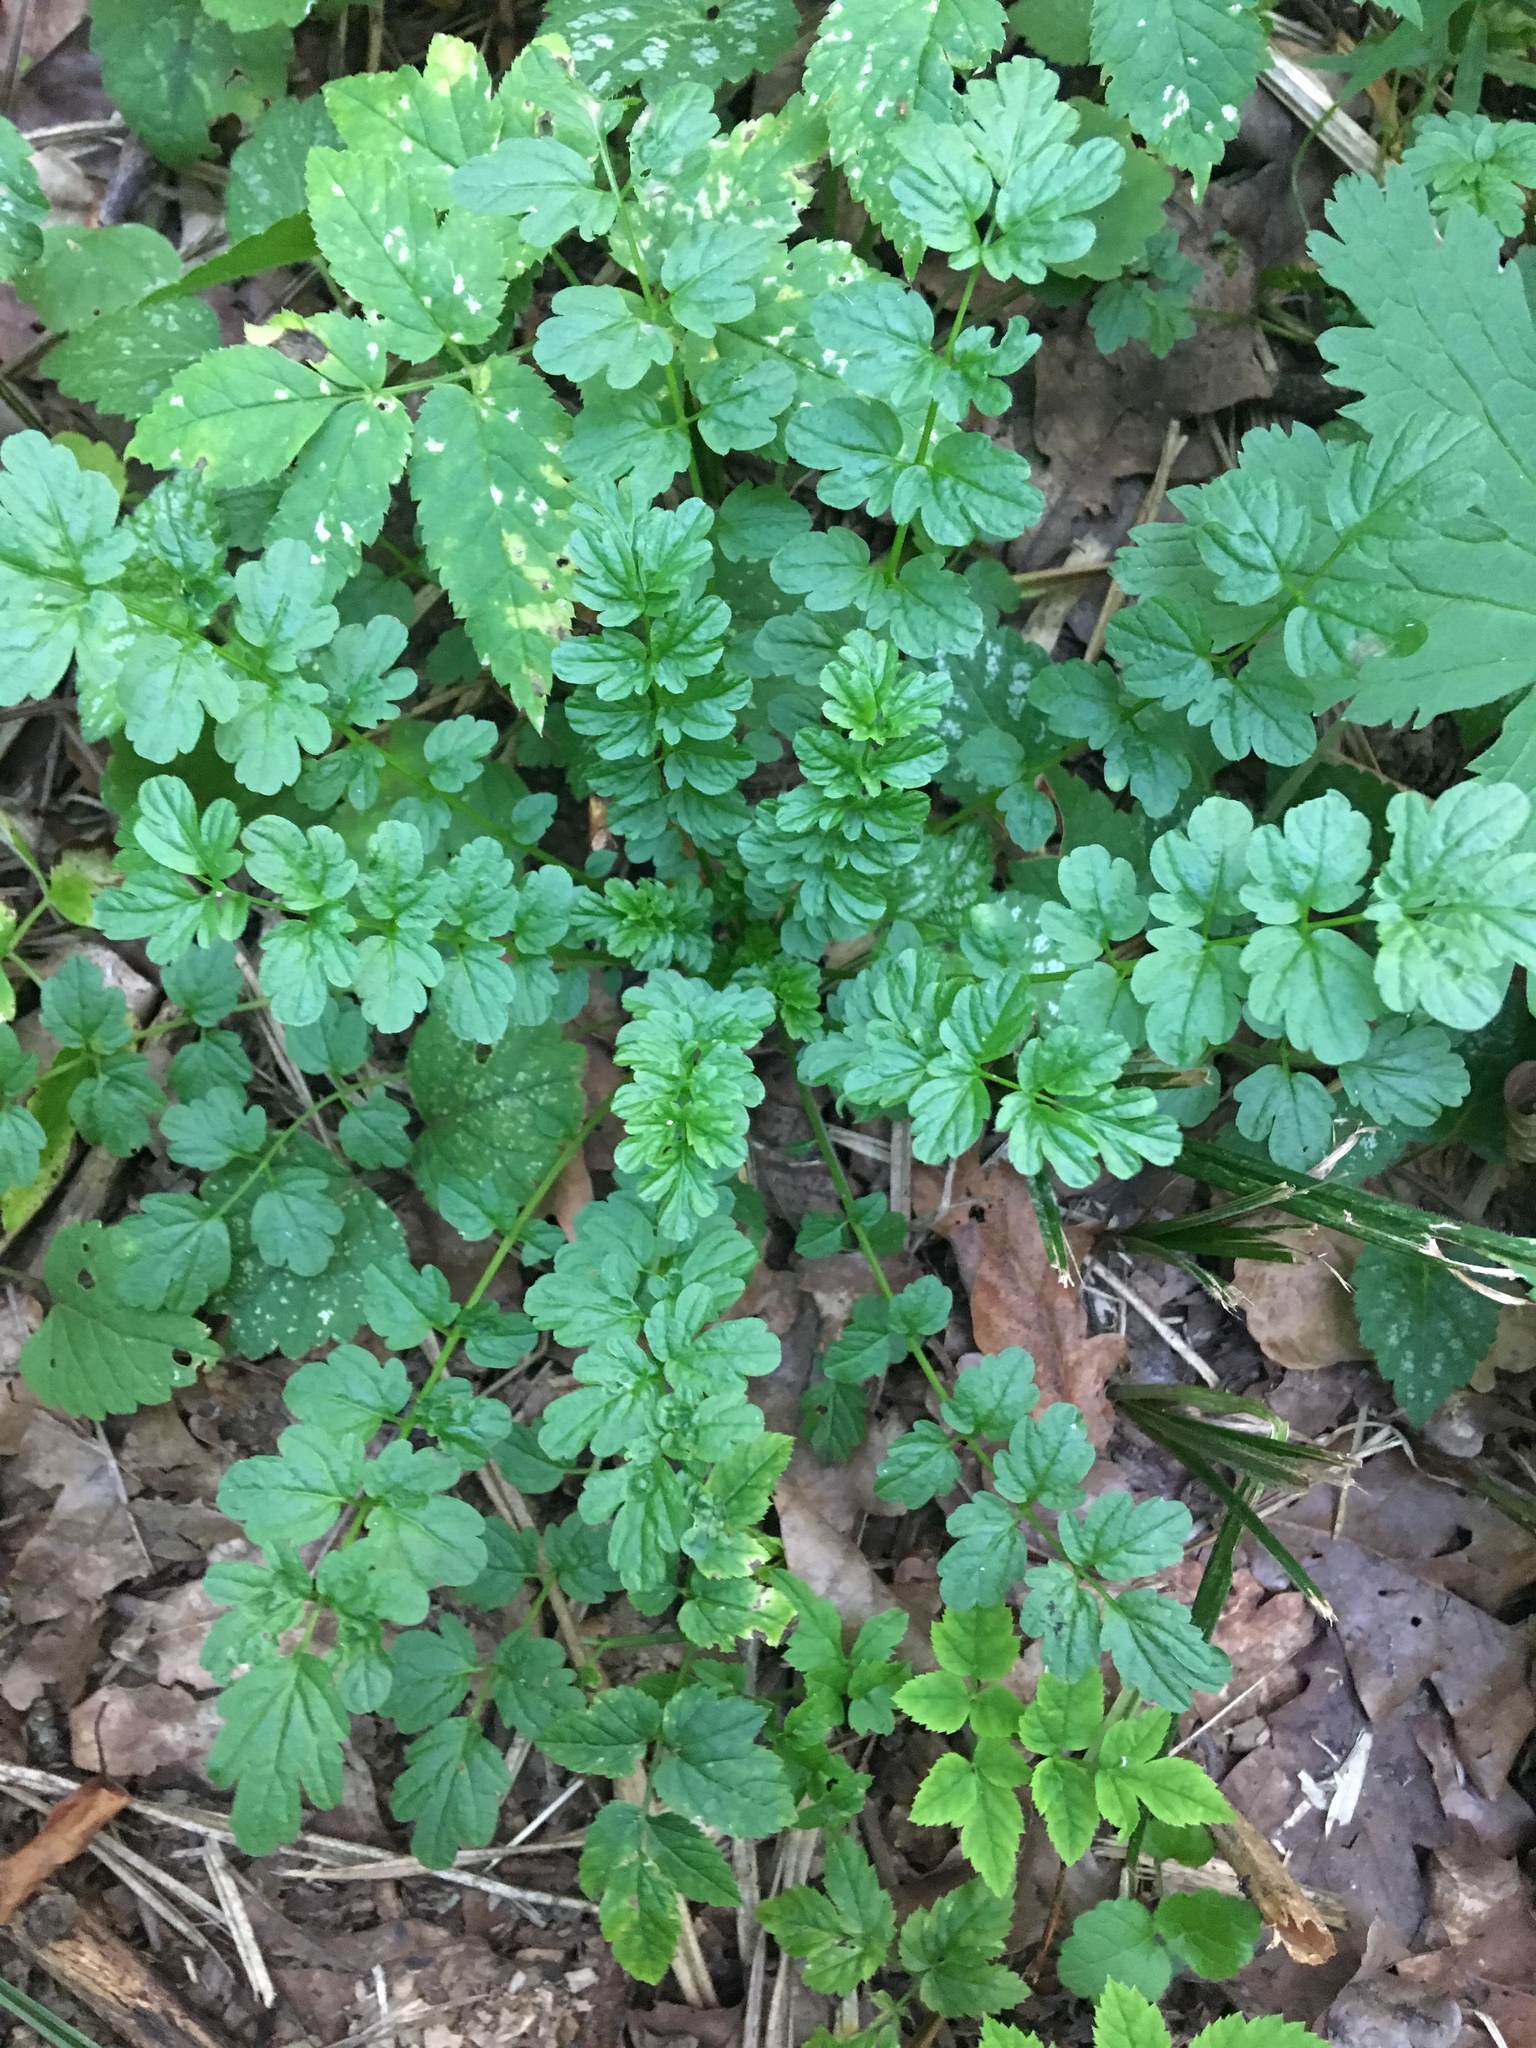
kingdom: Plantae
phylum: Tracheophyta
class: Magnoliopsida
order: Brassicales
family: Brassicaceae
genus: Cardamine
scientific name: Cardamine impatiens
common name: Narrow-leaved bitter-cress
